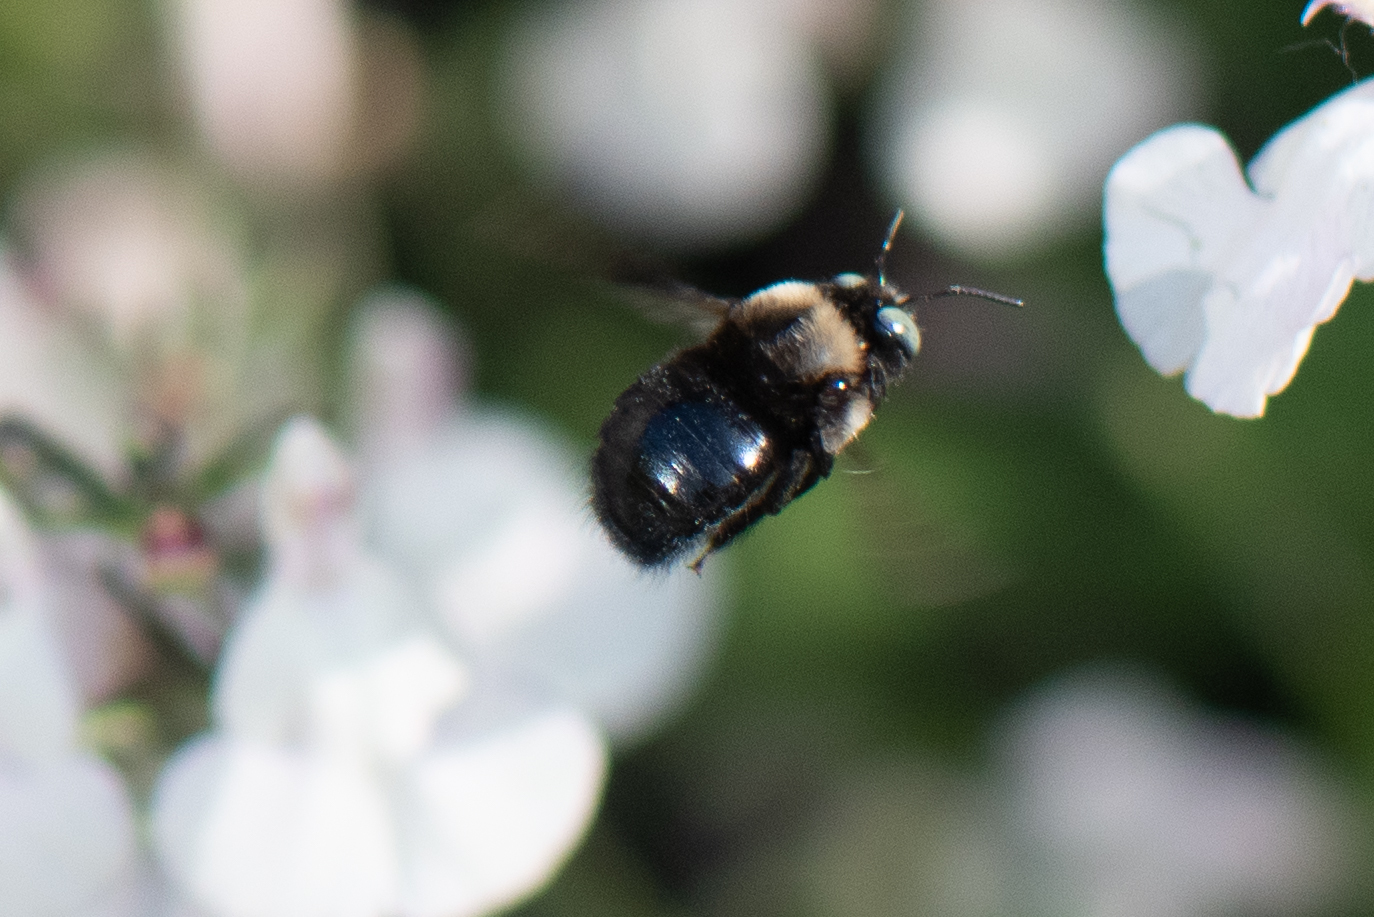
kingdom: Animalia
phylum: Arthropoda
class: Insecta
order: Hymenoptera
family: Apidae
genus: Xylocopa
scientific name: Xylocopa tabaniformis
